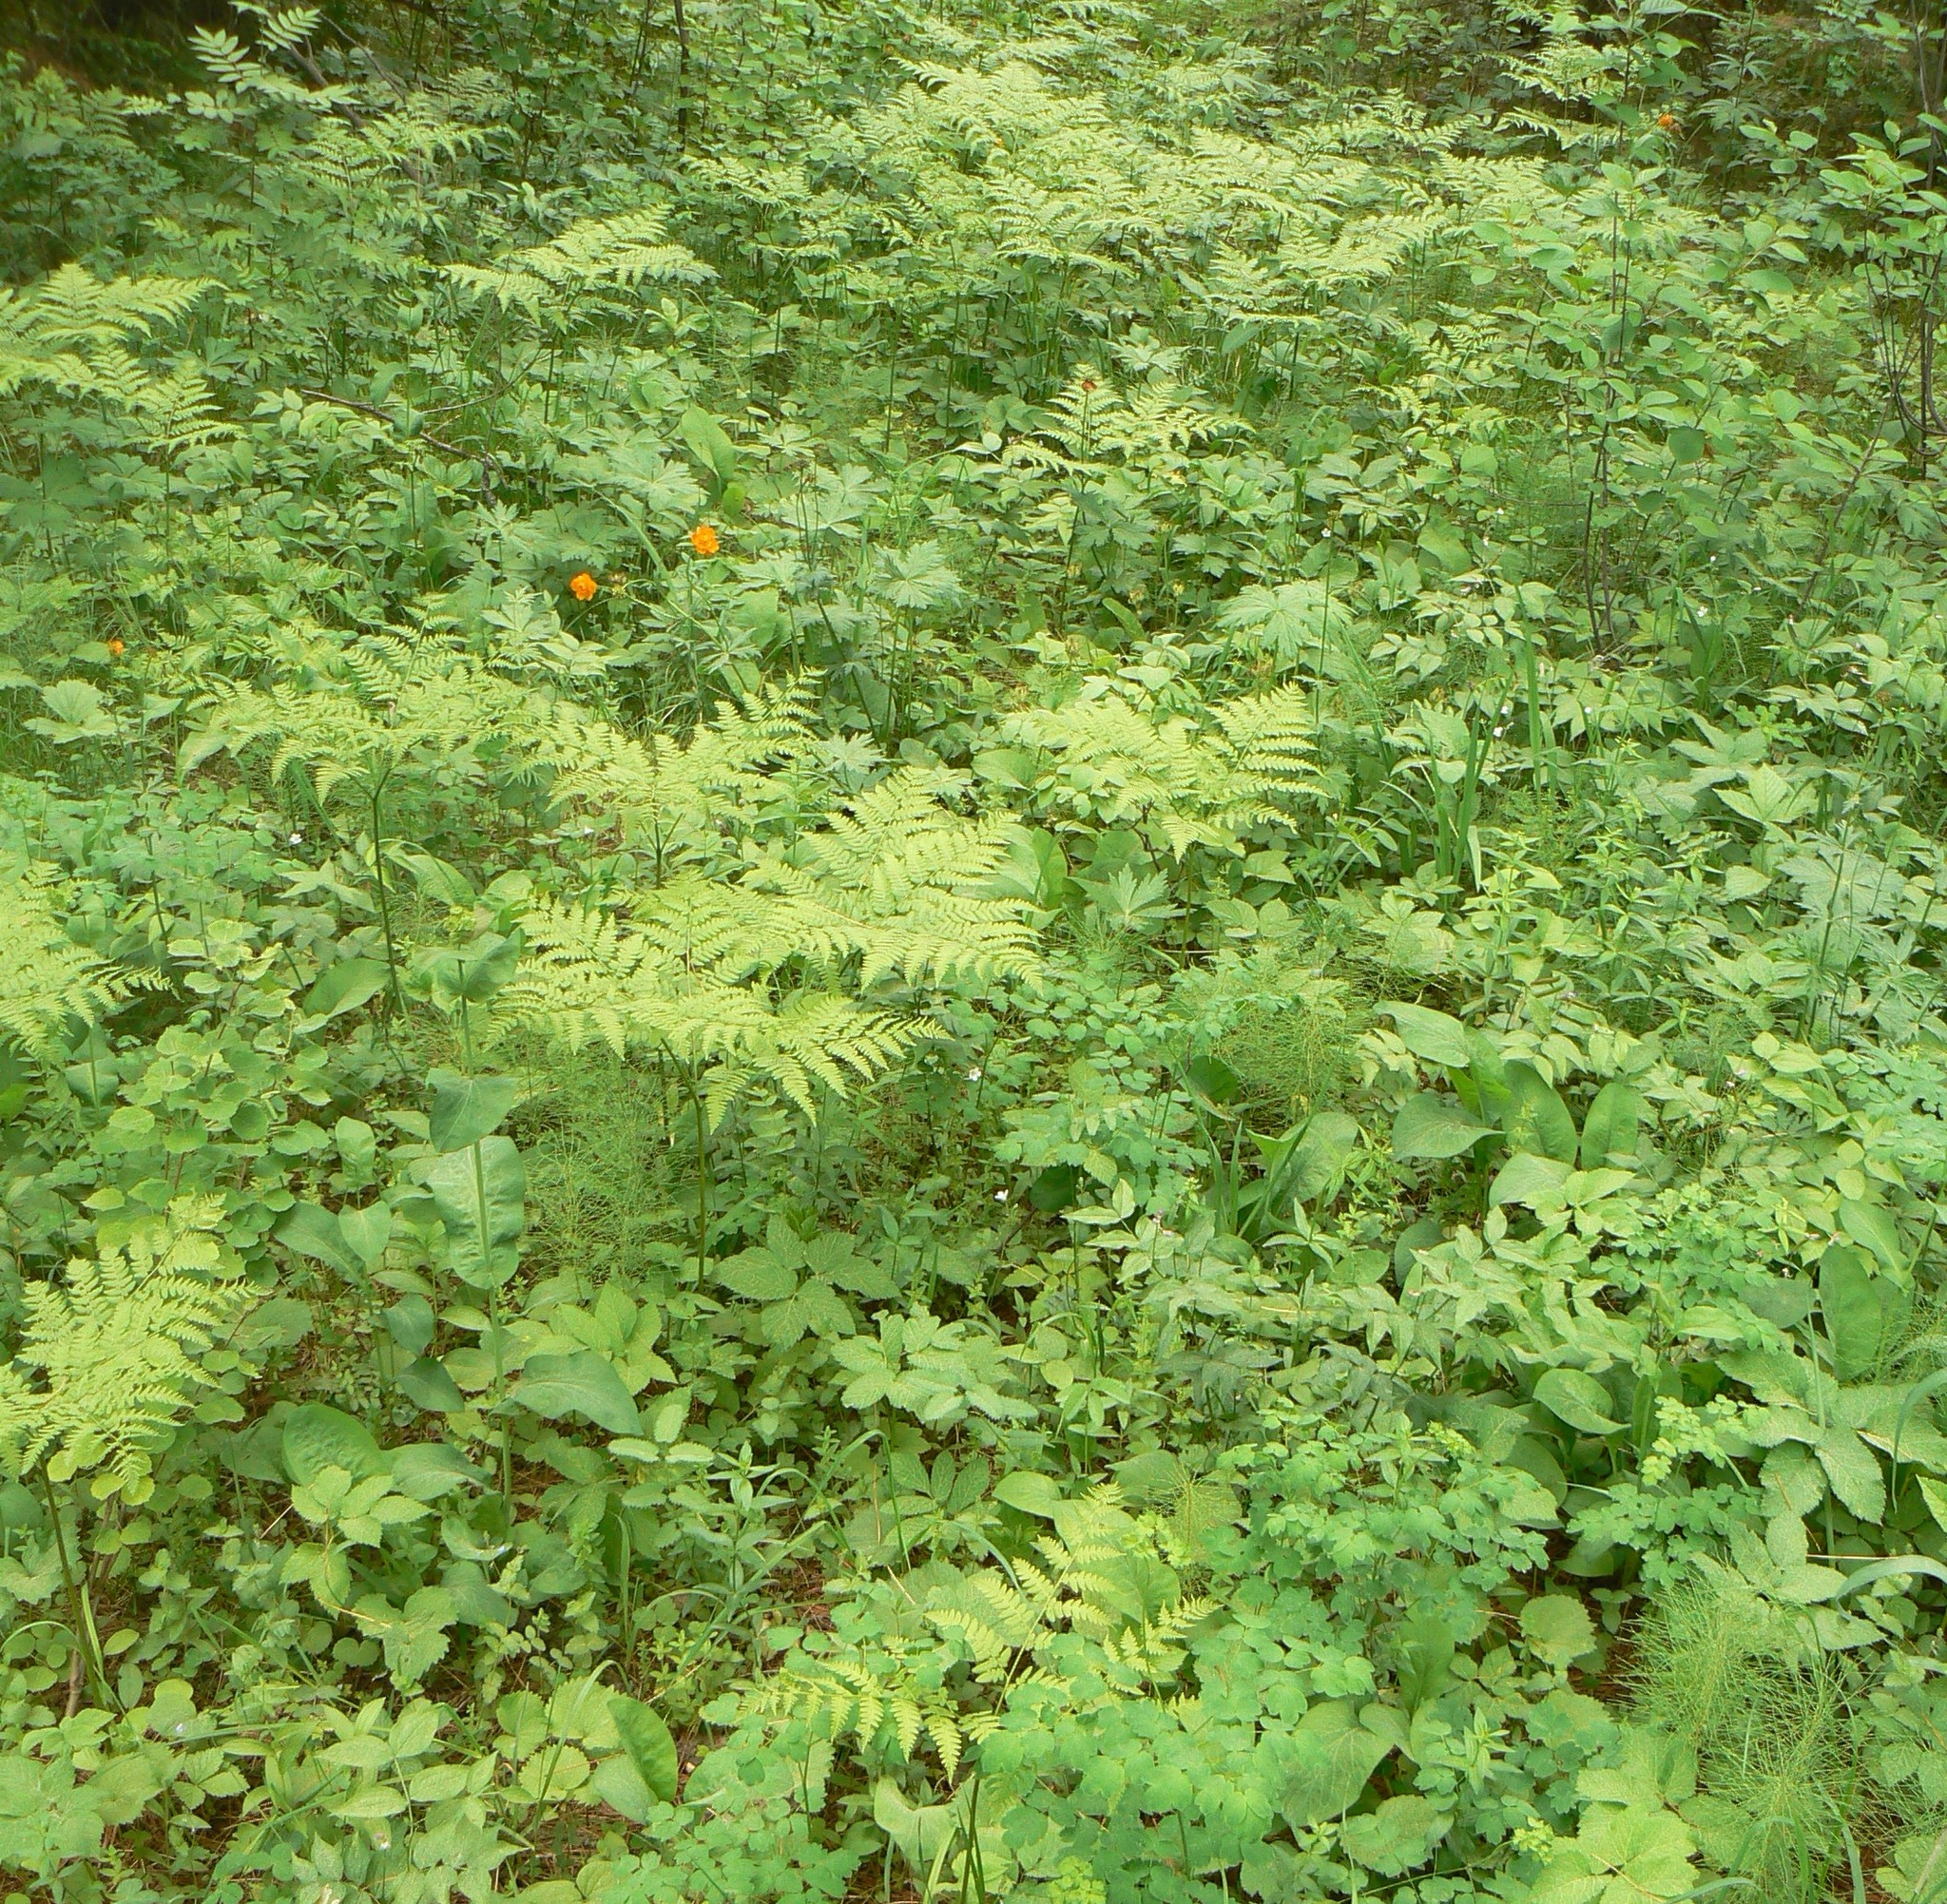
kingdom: Plantae
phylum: Tracheophyta
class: Polypodiopsida
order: Polypodiales
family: Dennstaedtiaceae
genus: Pteridium
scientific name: Pteridium aquilinum
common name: Bracken
